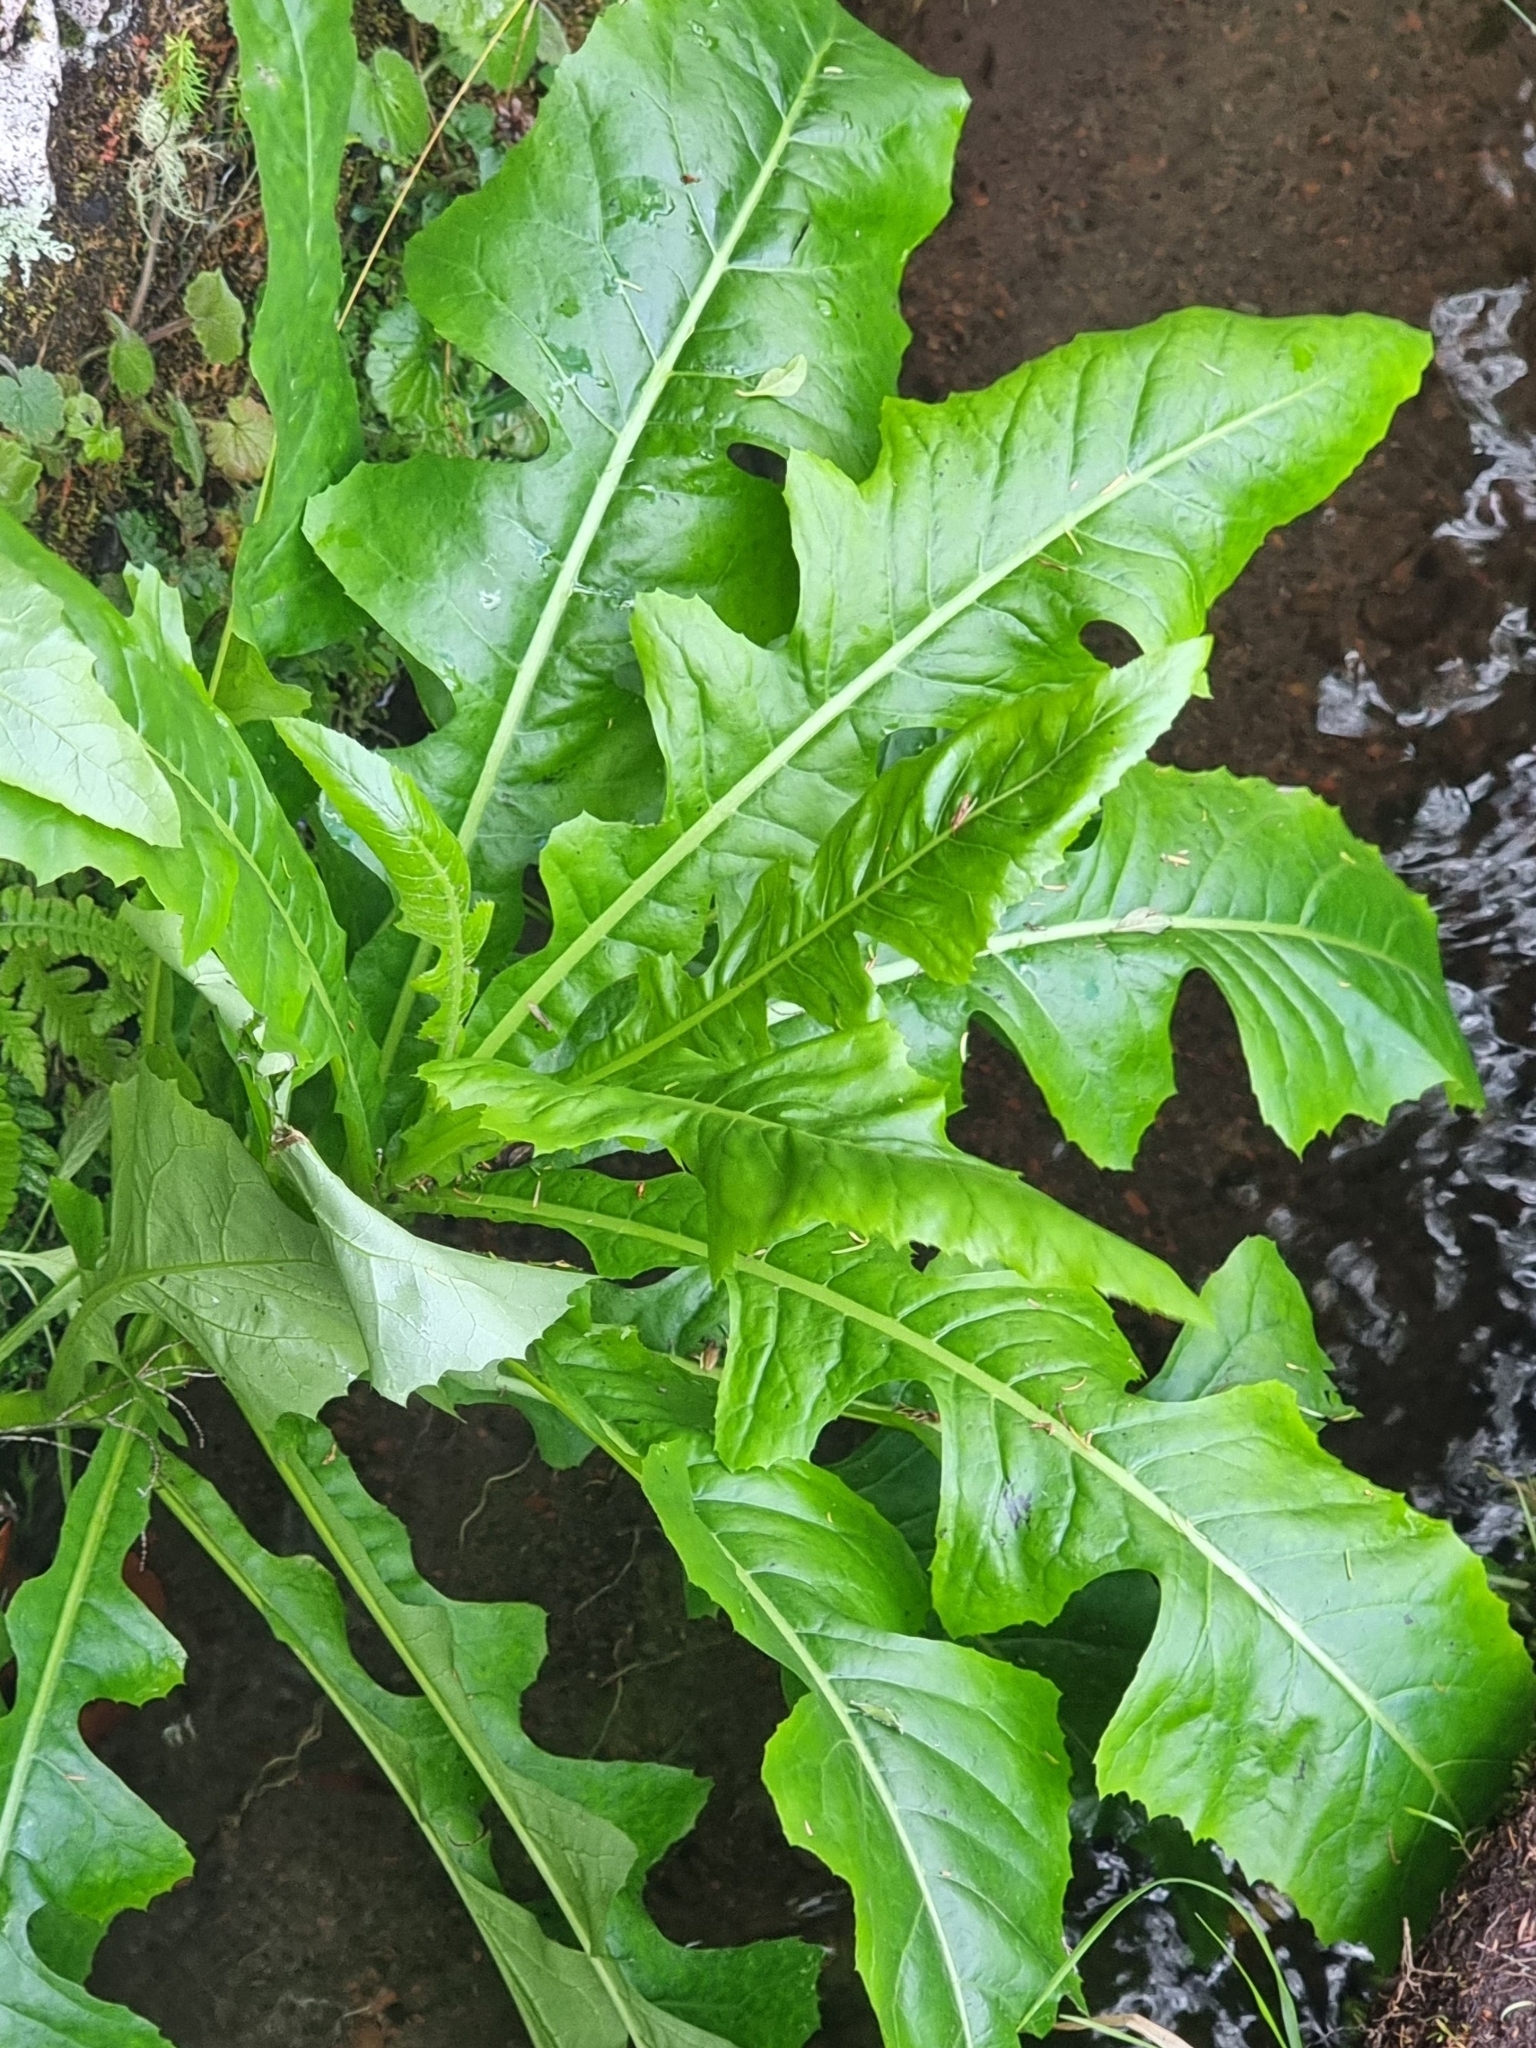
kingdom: Plantae
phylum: Tracheophyta
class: Magnoliopsida
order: Asterales
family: Asteraceae
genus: Sonchus
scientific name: Sonchus fruticosus
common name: Shrubby sow-thistle
